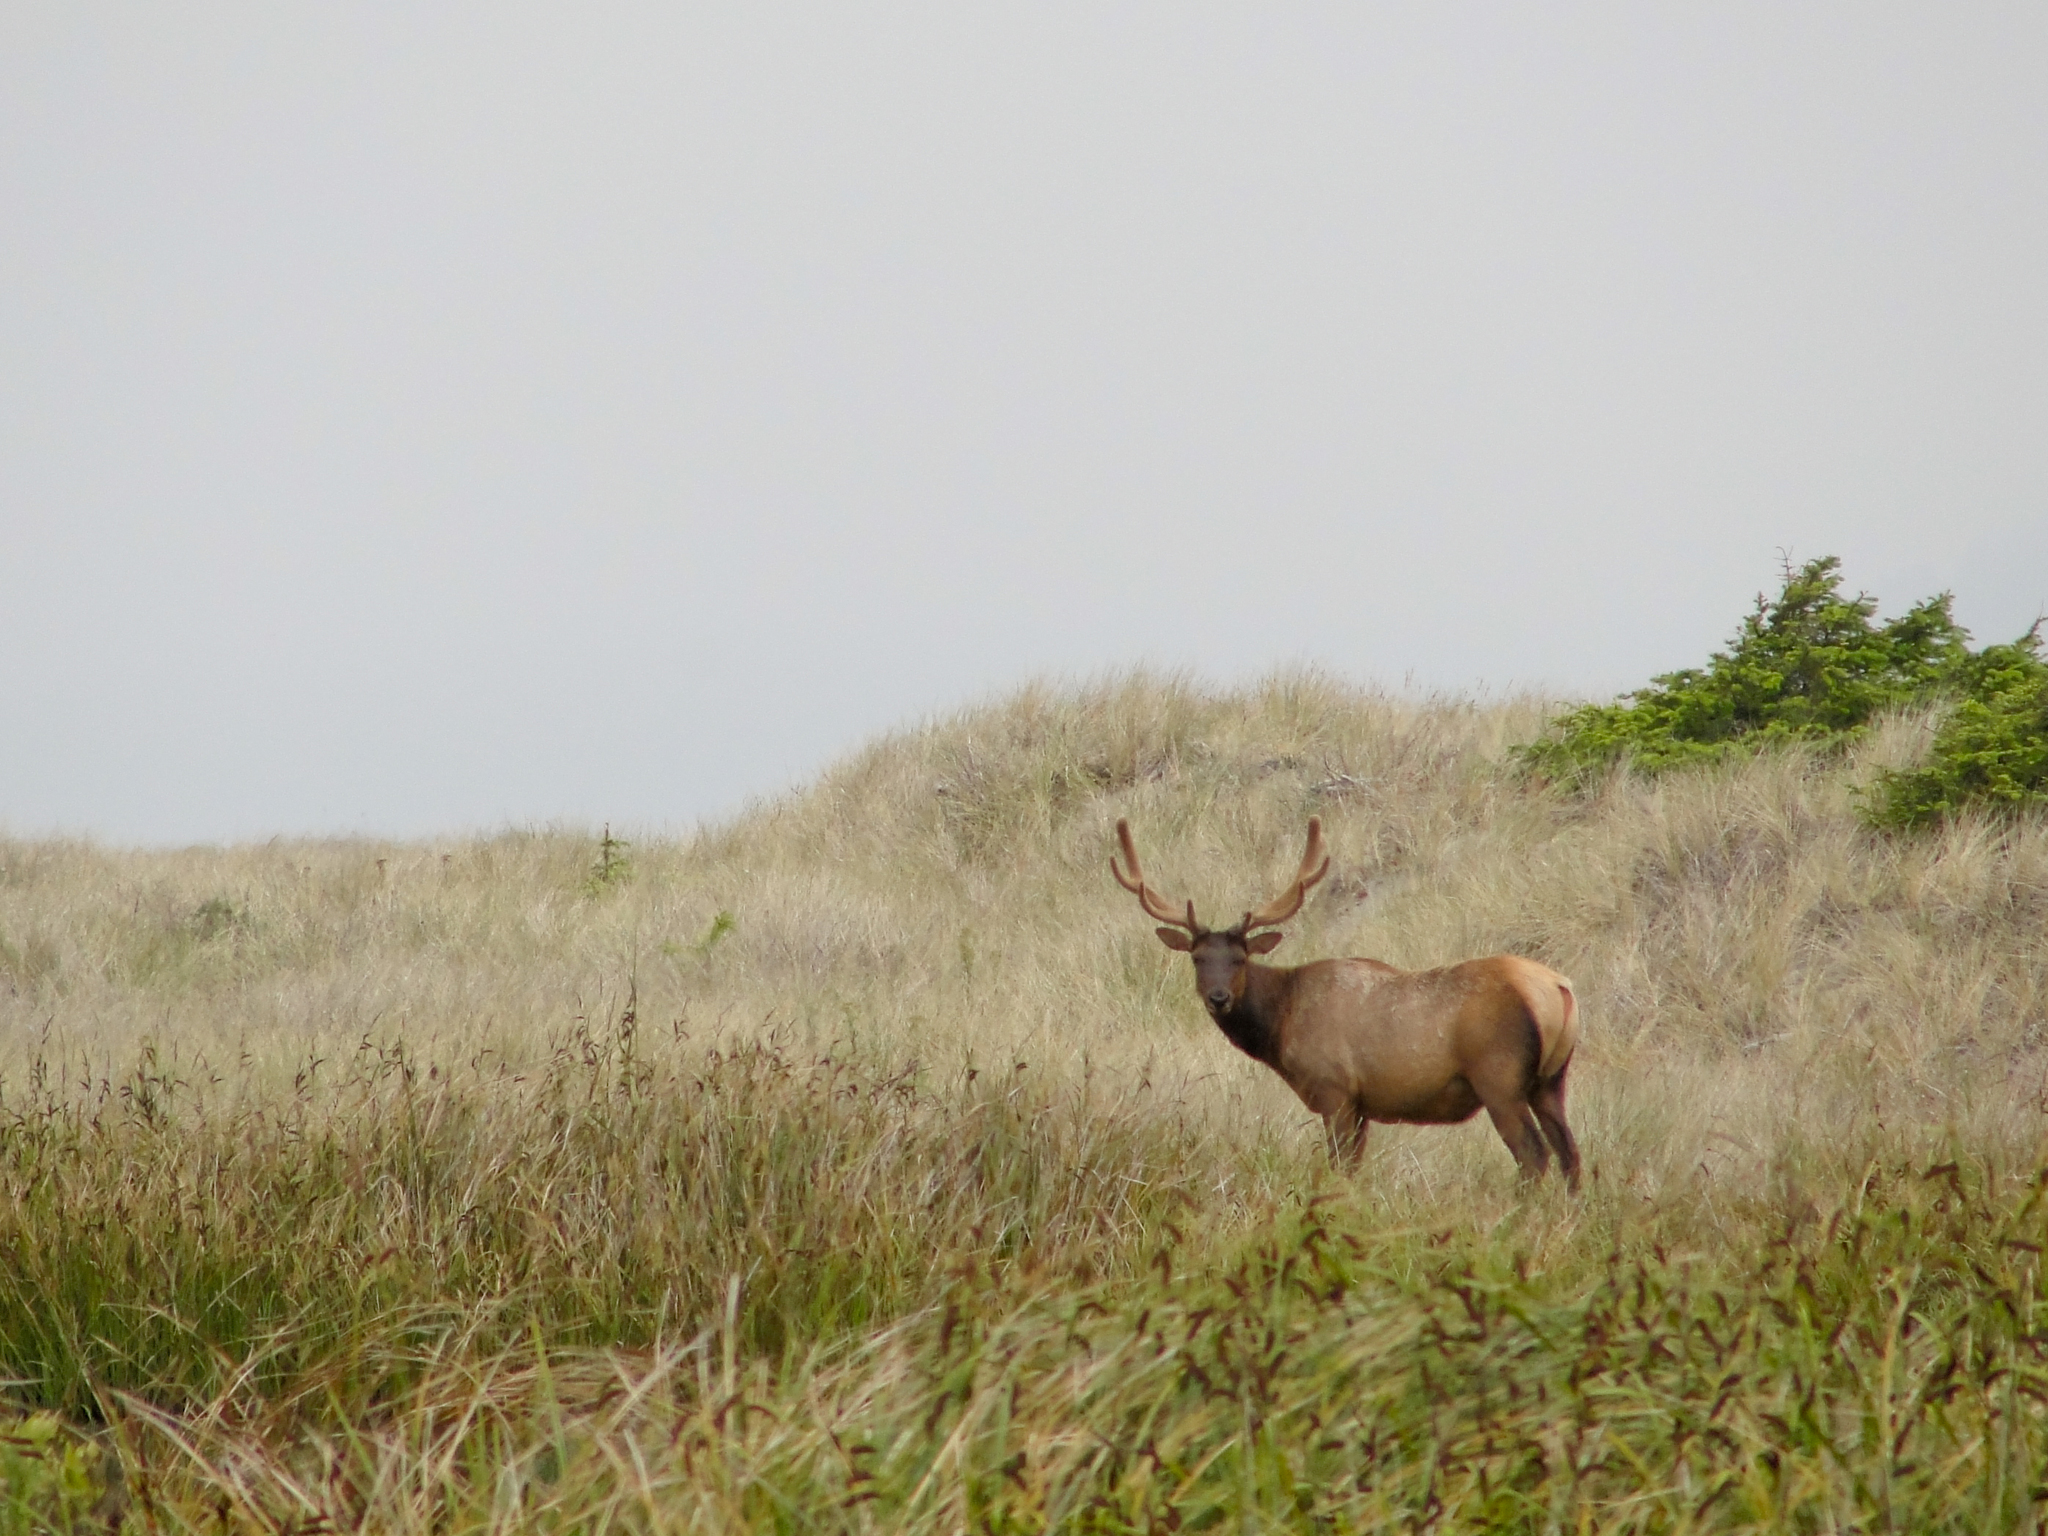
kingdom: Animalia
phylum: Chordata
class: Mammalia
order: Artiodactyla
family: Cervidae
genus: Cervus
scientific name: Cervus elaphus
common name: Red deer
